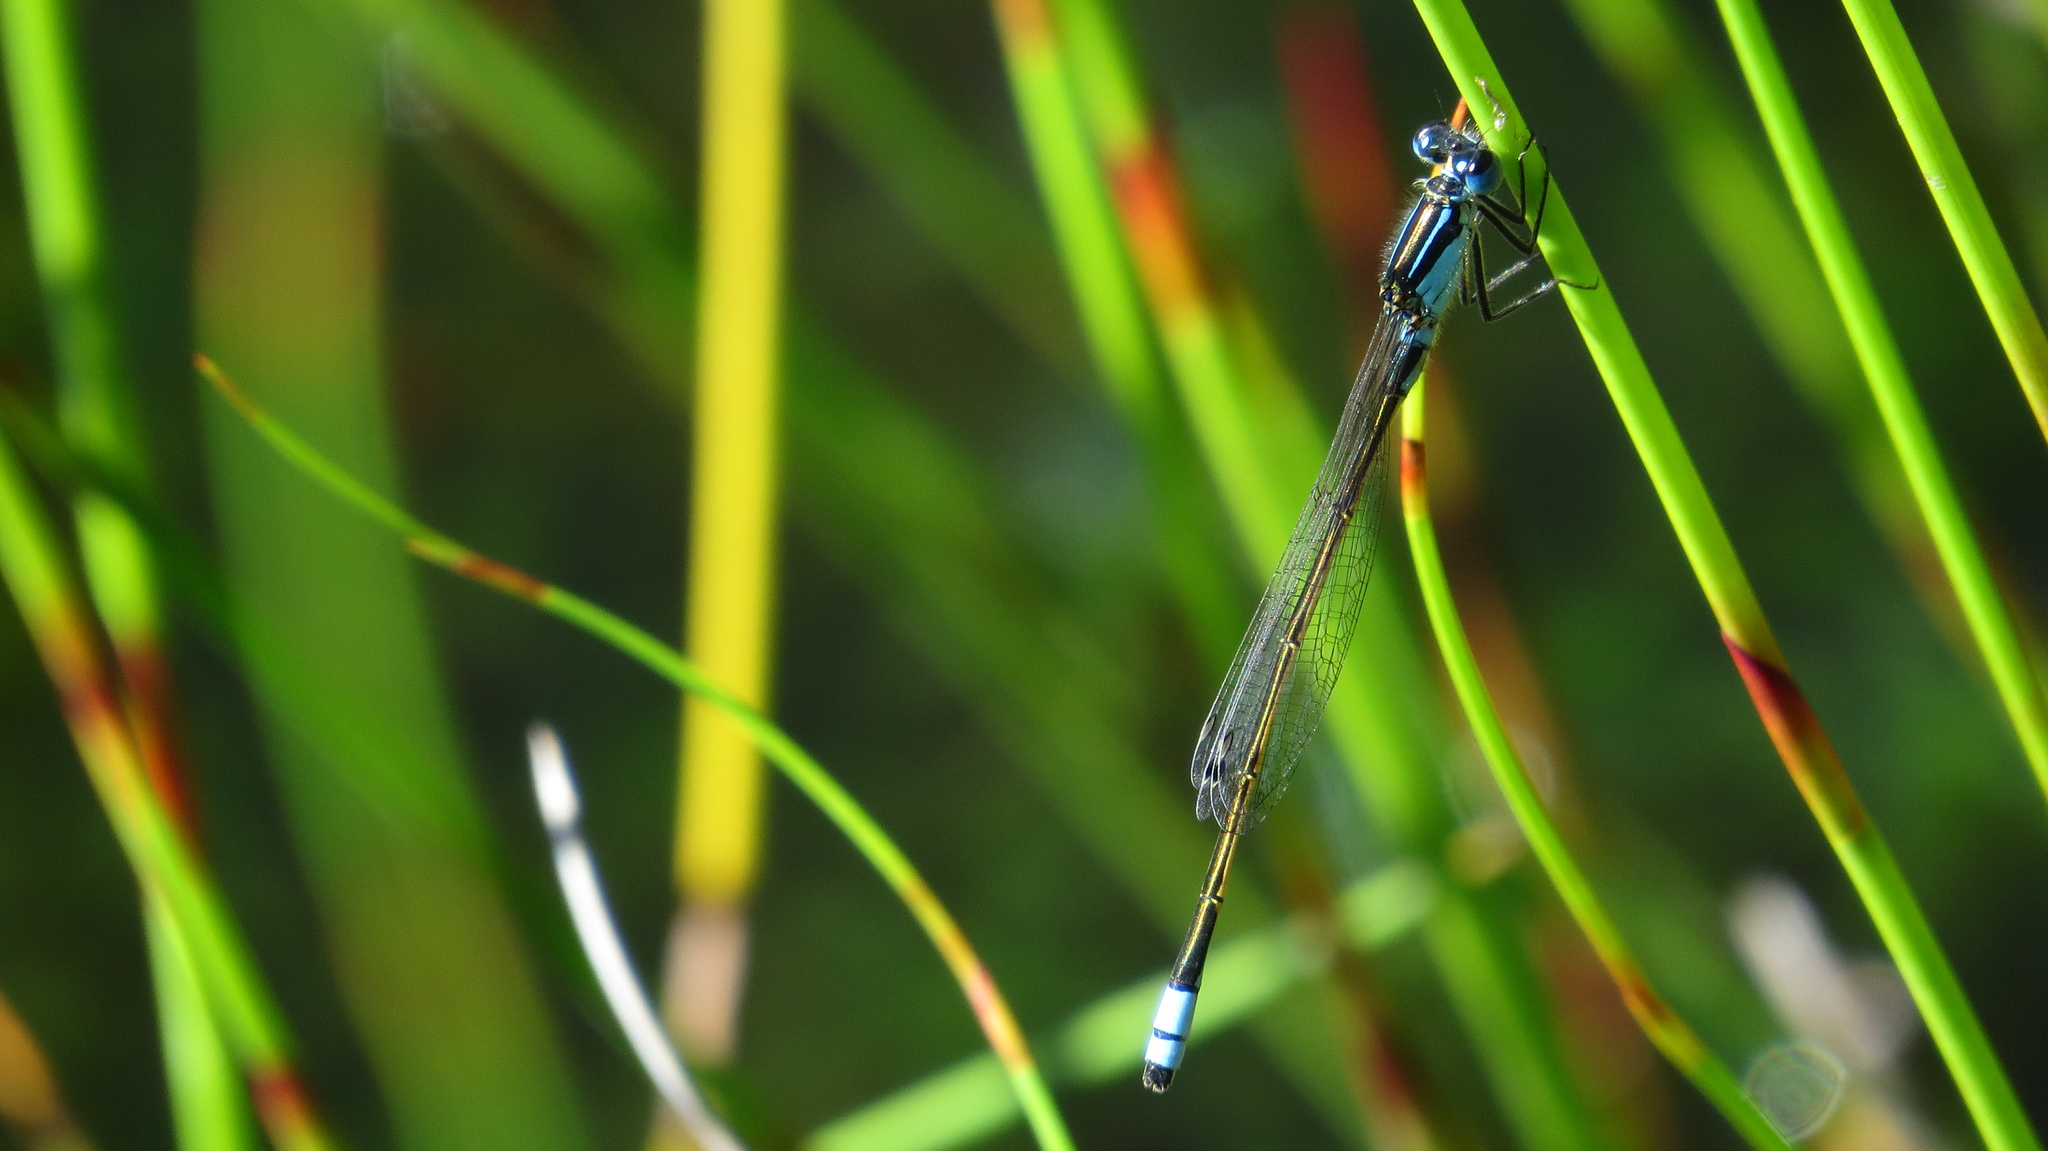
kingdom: Animalia
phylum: Arthropoda
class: Insecta
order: Odonata
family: Coenagrionidae
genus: Ischnura
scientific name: Ischnura heterosticta
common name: Common bluetail
